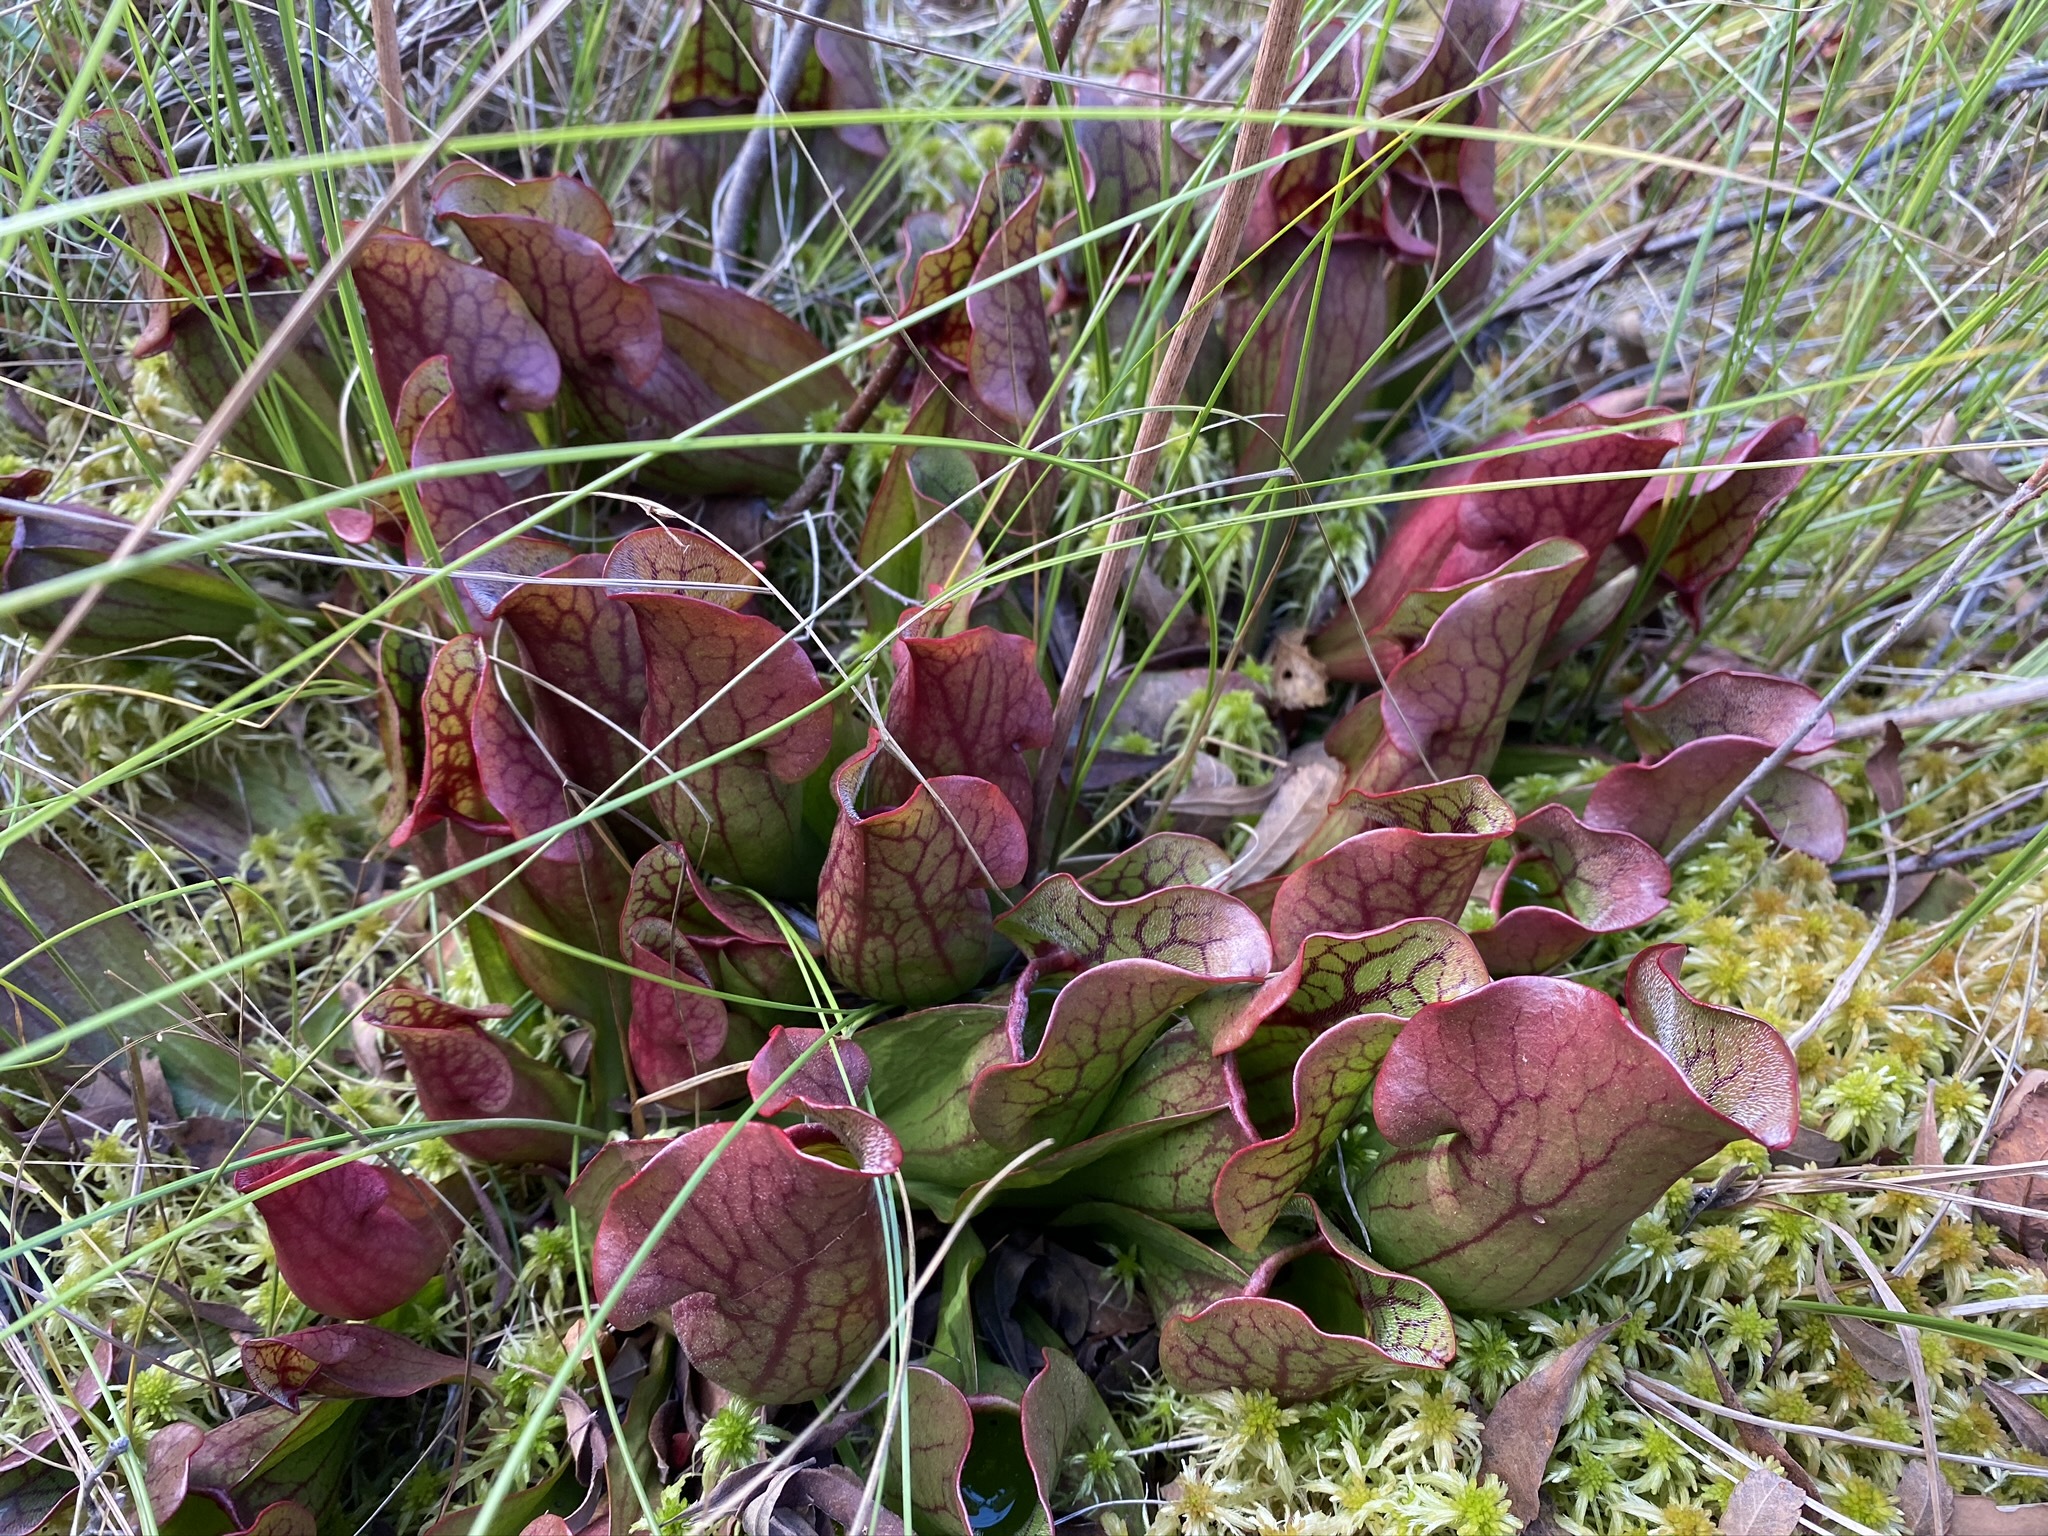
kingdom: Plantae
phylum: Tracheophyta
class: Magnoliopsida
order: Ericales
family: Sarraceniaceae
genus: Sarracenia
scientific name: Sarracenia purpurea
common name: Pitcherplant
